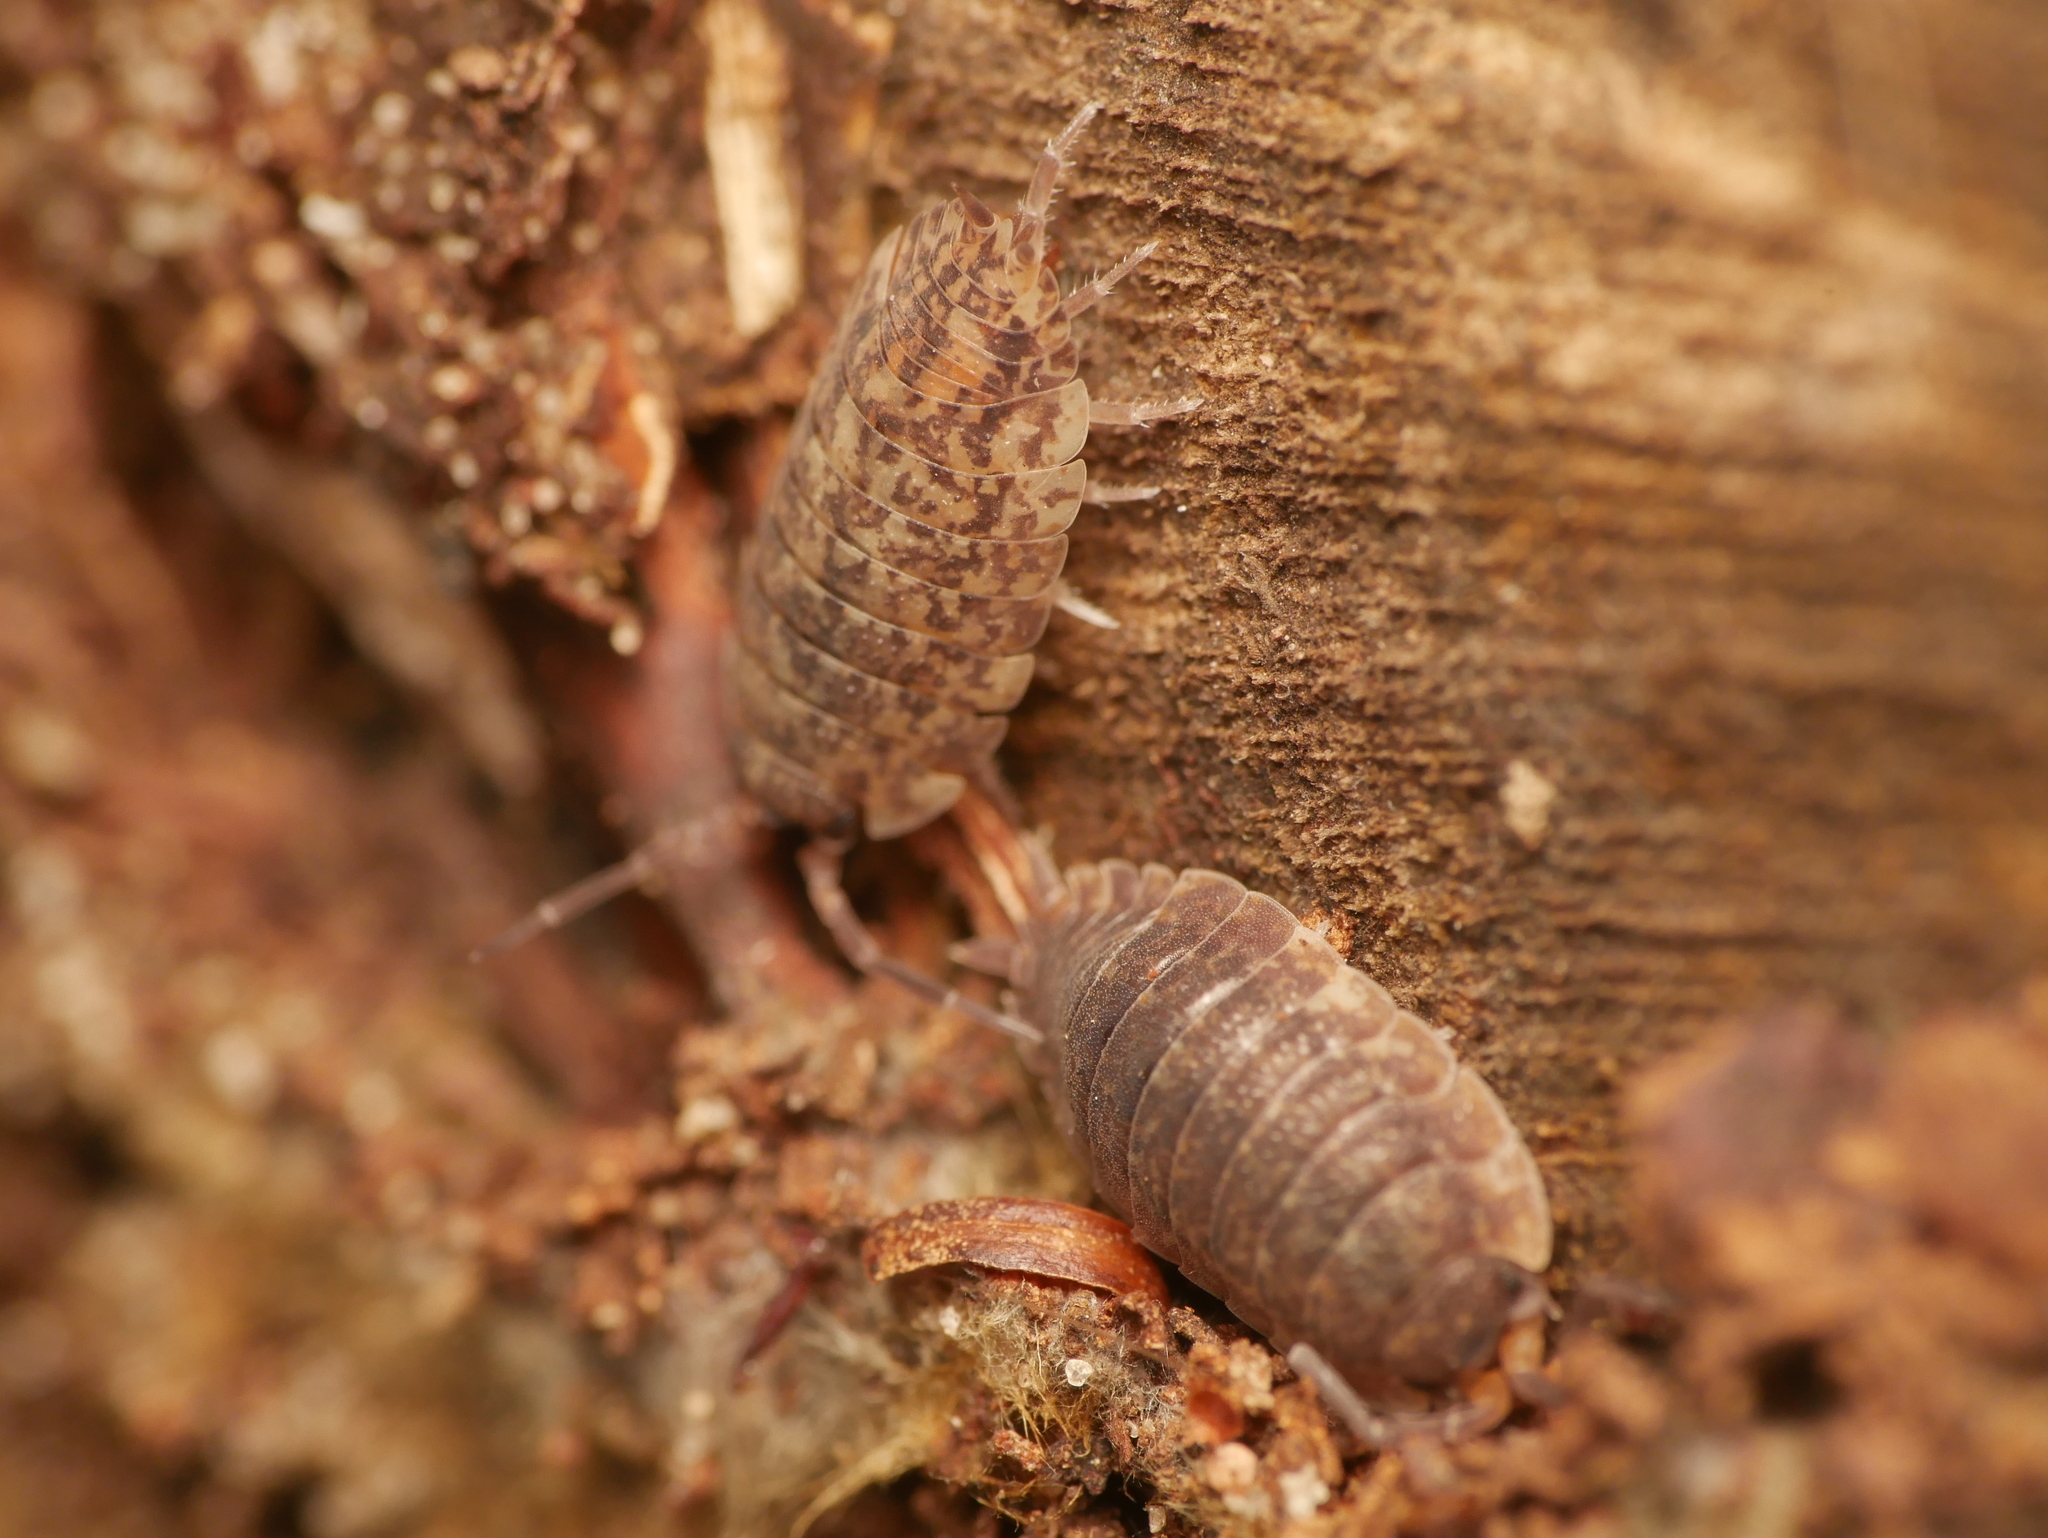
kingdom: Animalia
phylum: Arthropoda
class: Malacostraca
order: Isopoda
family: Porcellionidae
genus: Porcellio
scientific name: Porcellio scaber
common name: Common rough woodlouse
